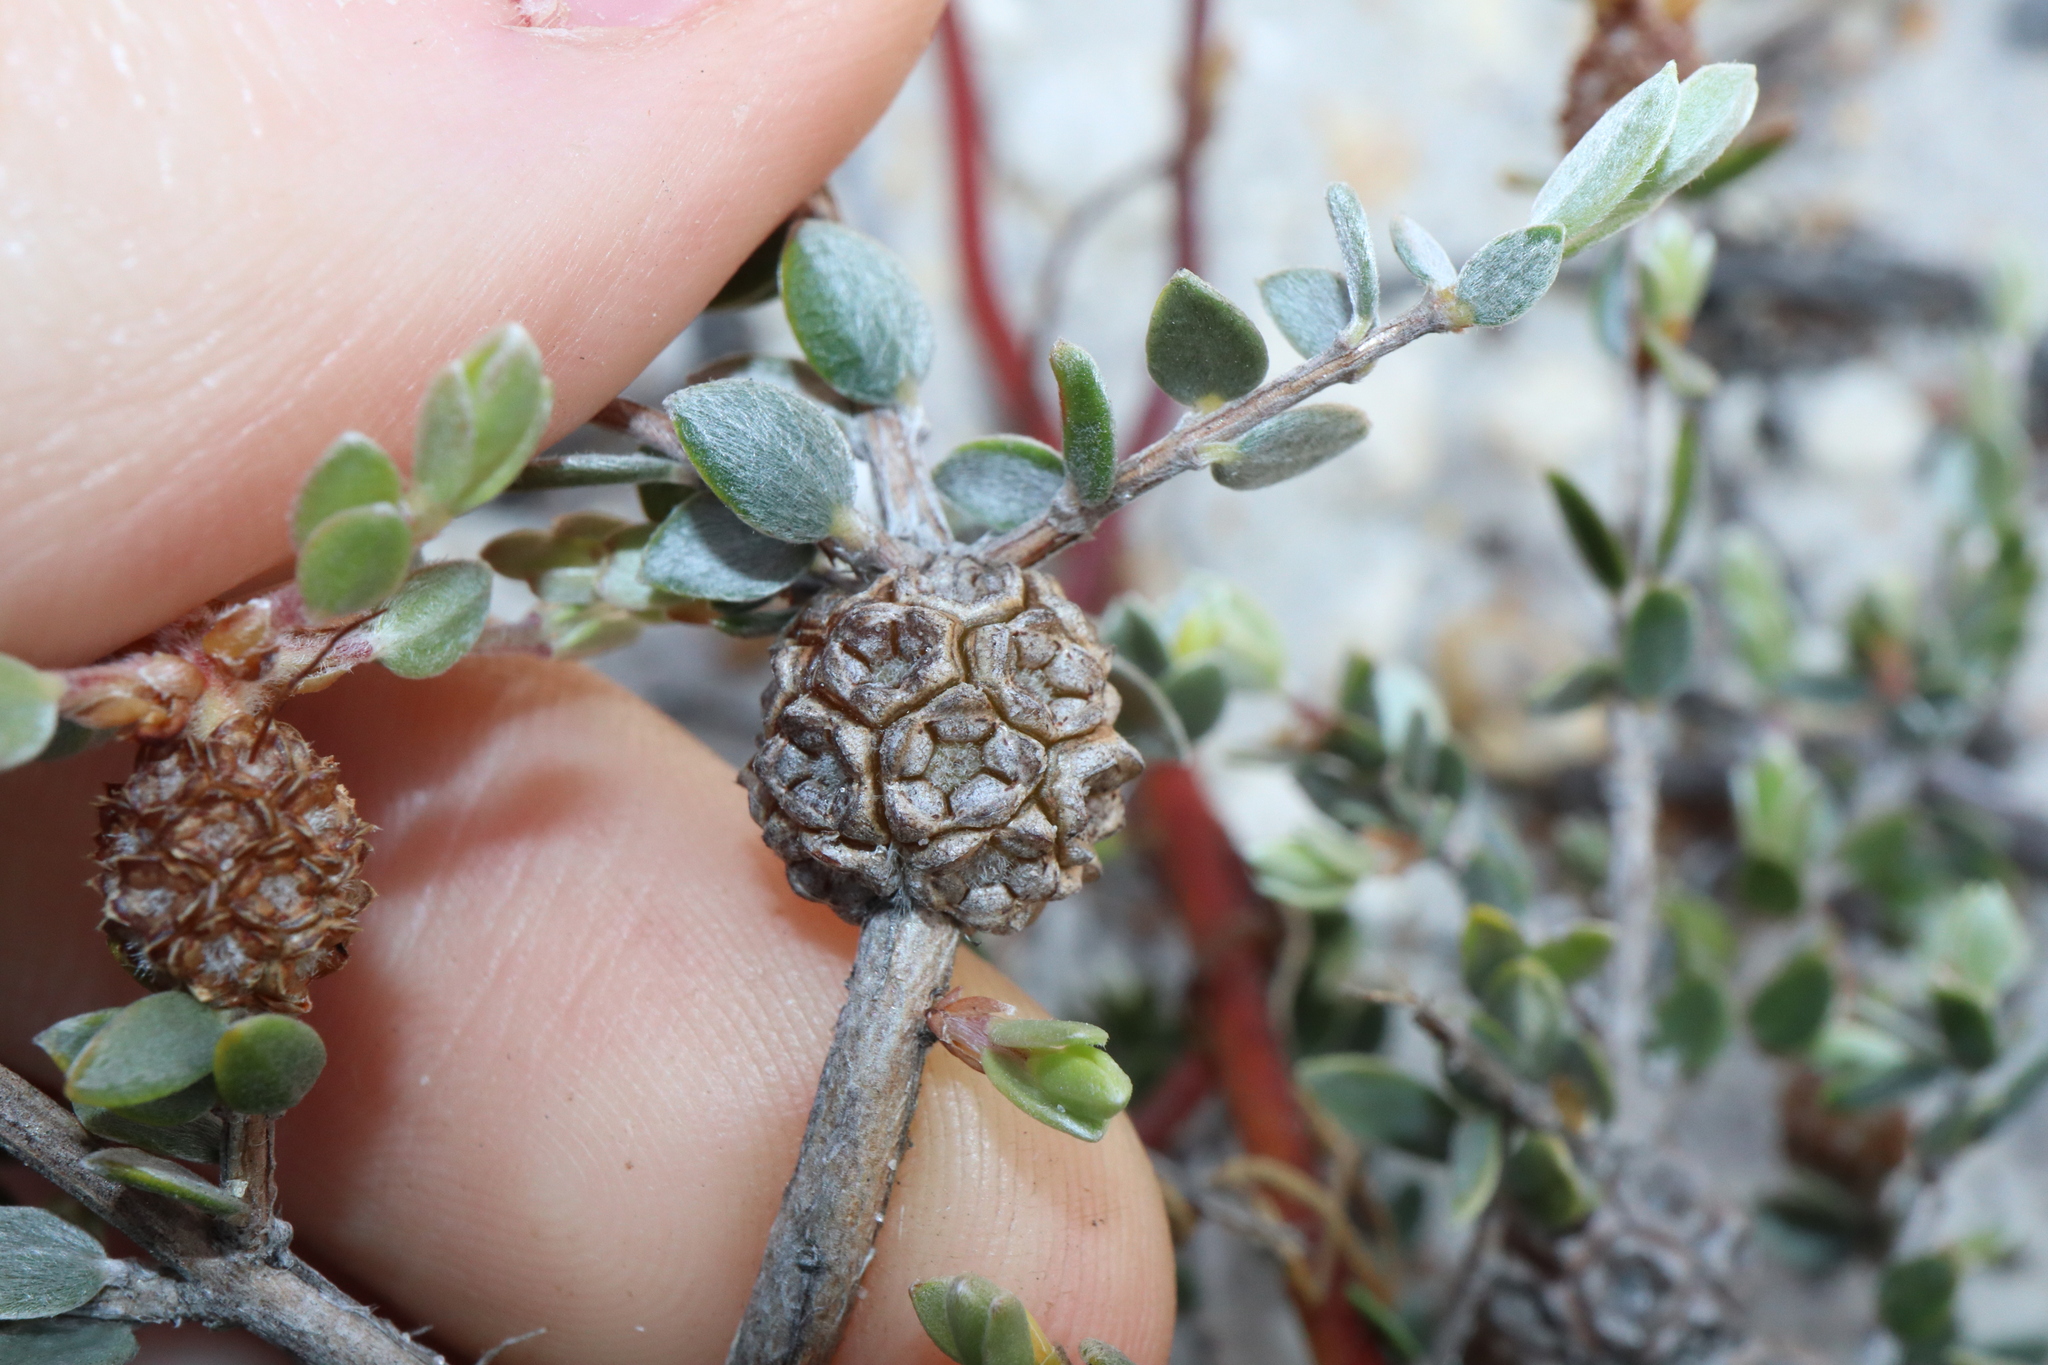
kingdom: Plantae
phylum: Tracheophyta
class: Magnoliopsida
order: Myrtales
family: Myrtaceae
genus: Melaleuca
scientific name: Melaleuca aurea
